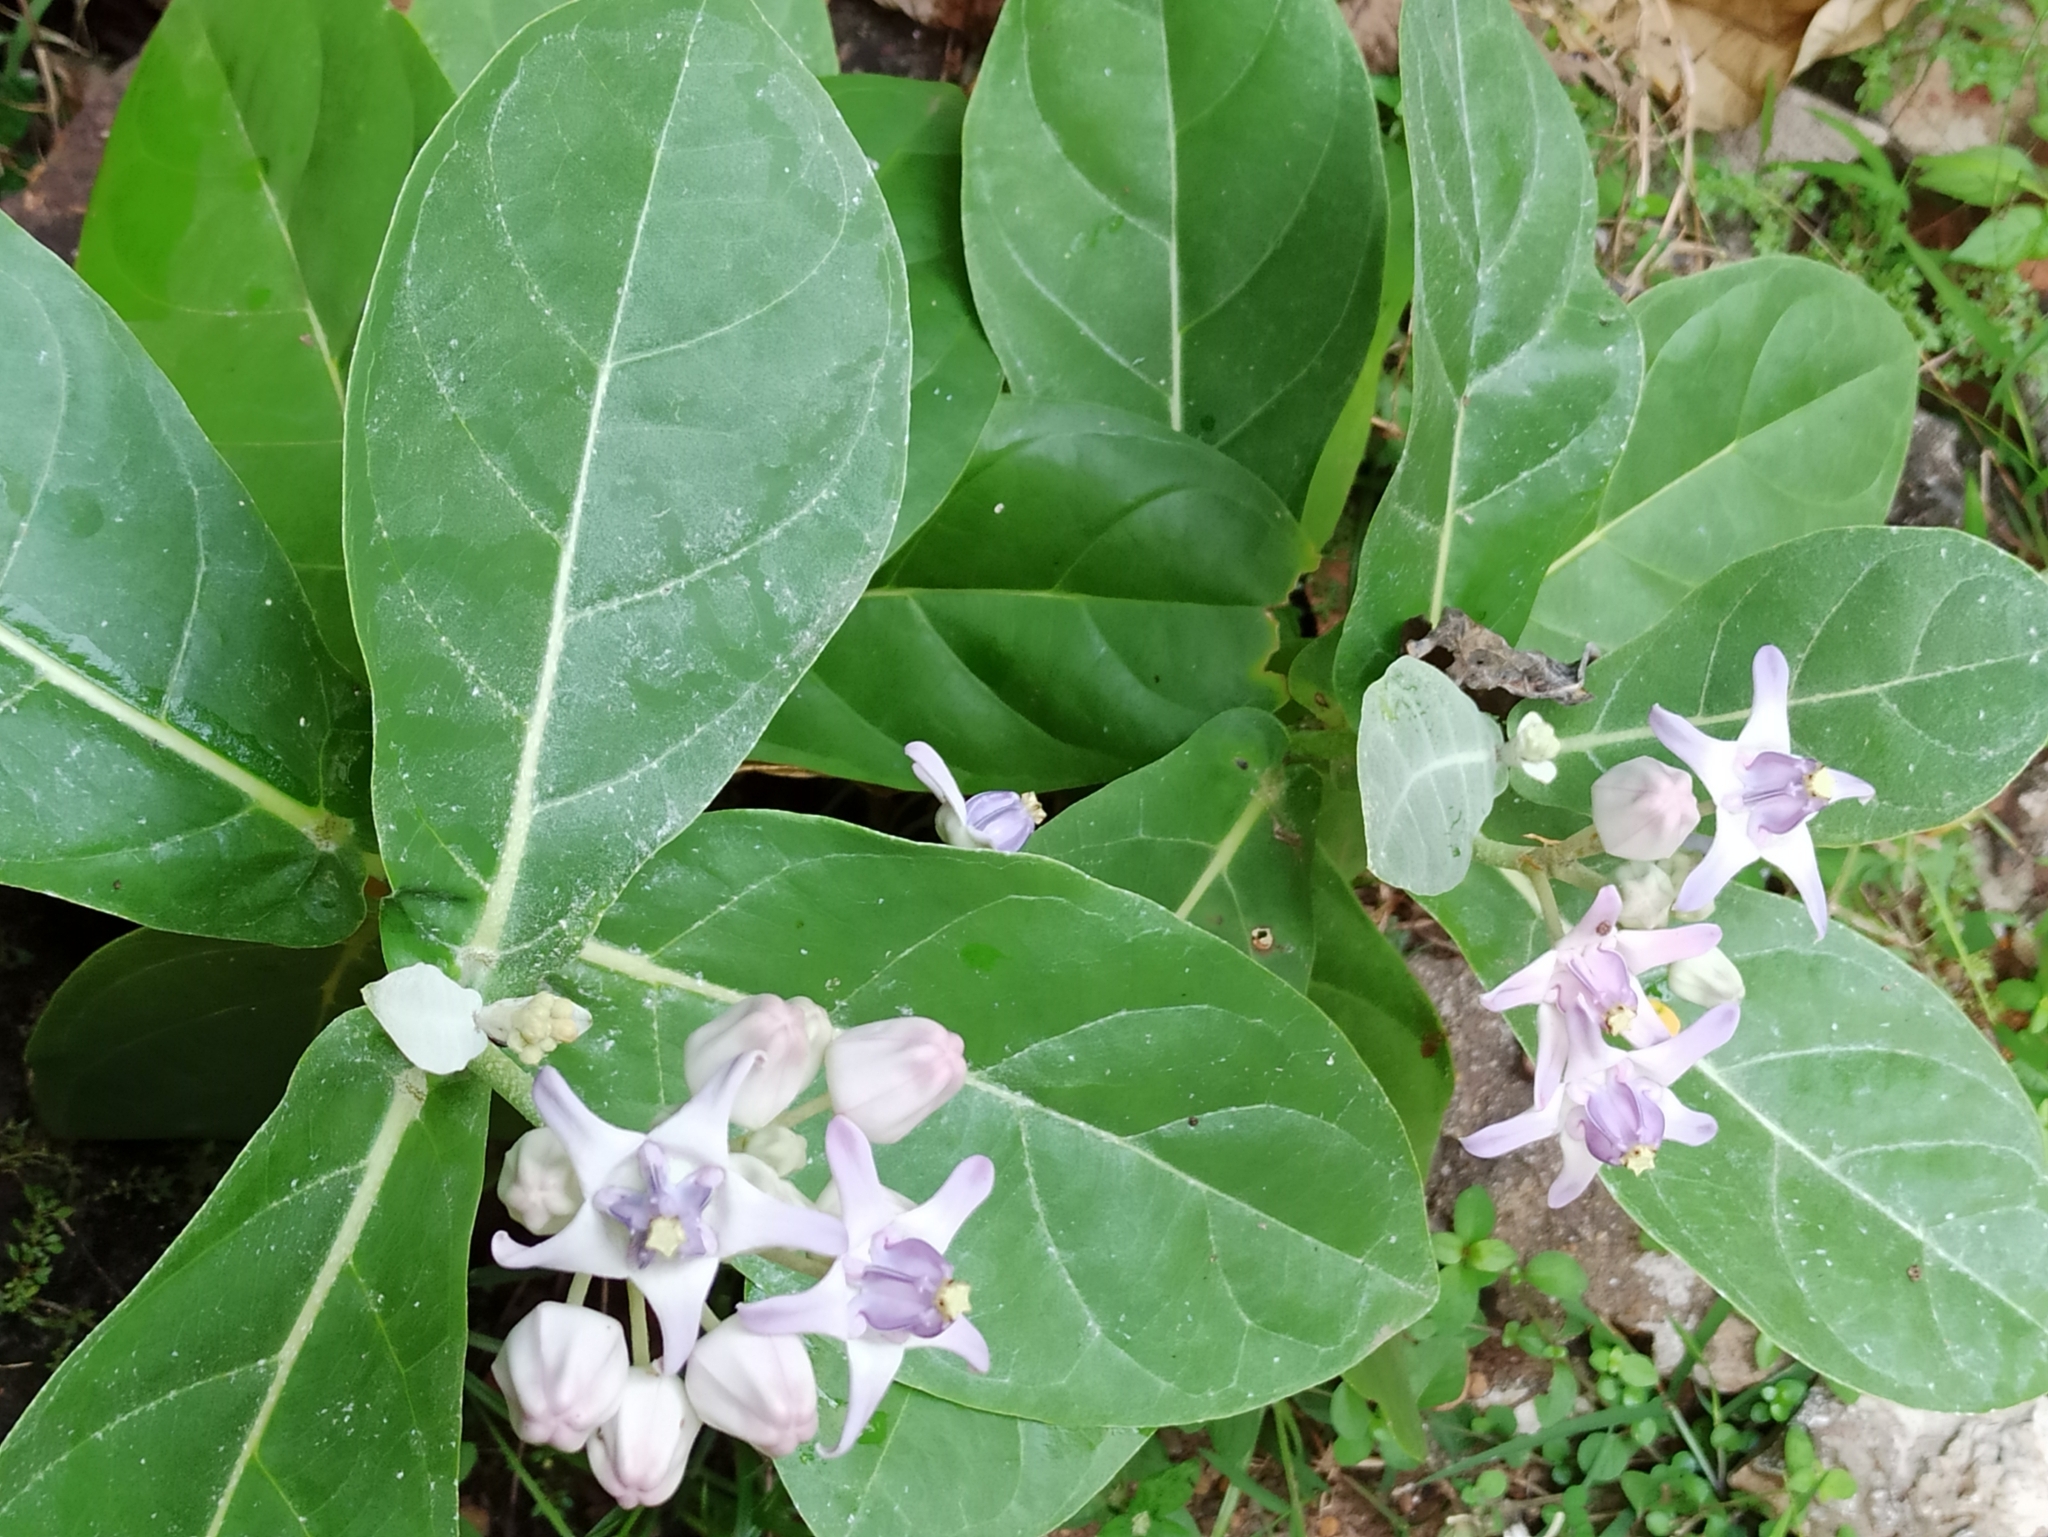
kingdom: Plantae
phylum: Tracheophyta
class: Magnoliopsida
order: Gentianales
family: Apocynaceae
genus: Calotropis
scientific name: Calotropis gigantea
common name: Crown flower
